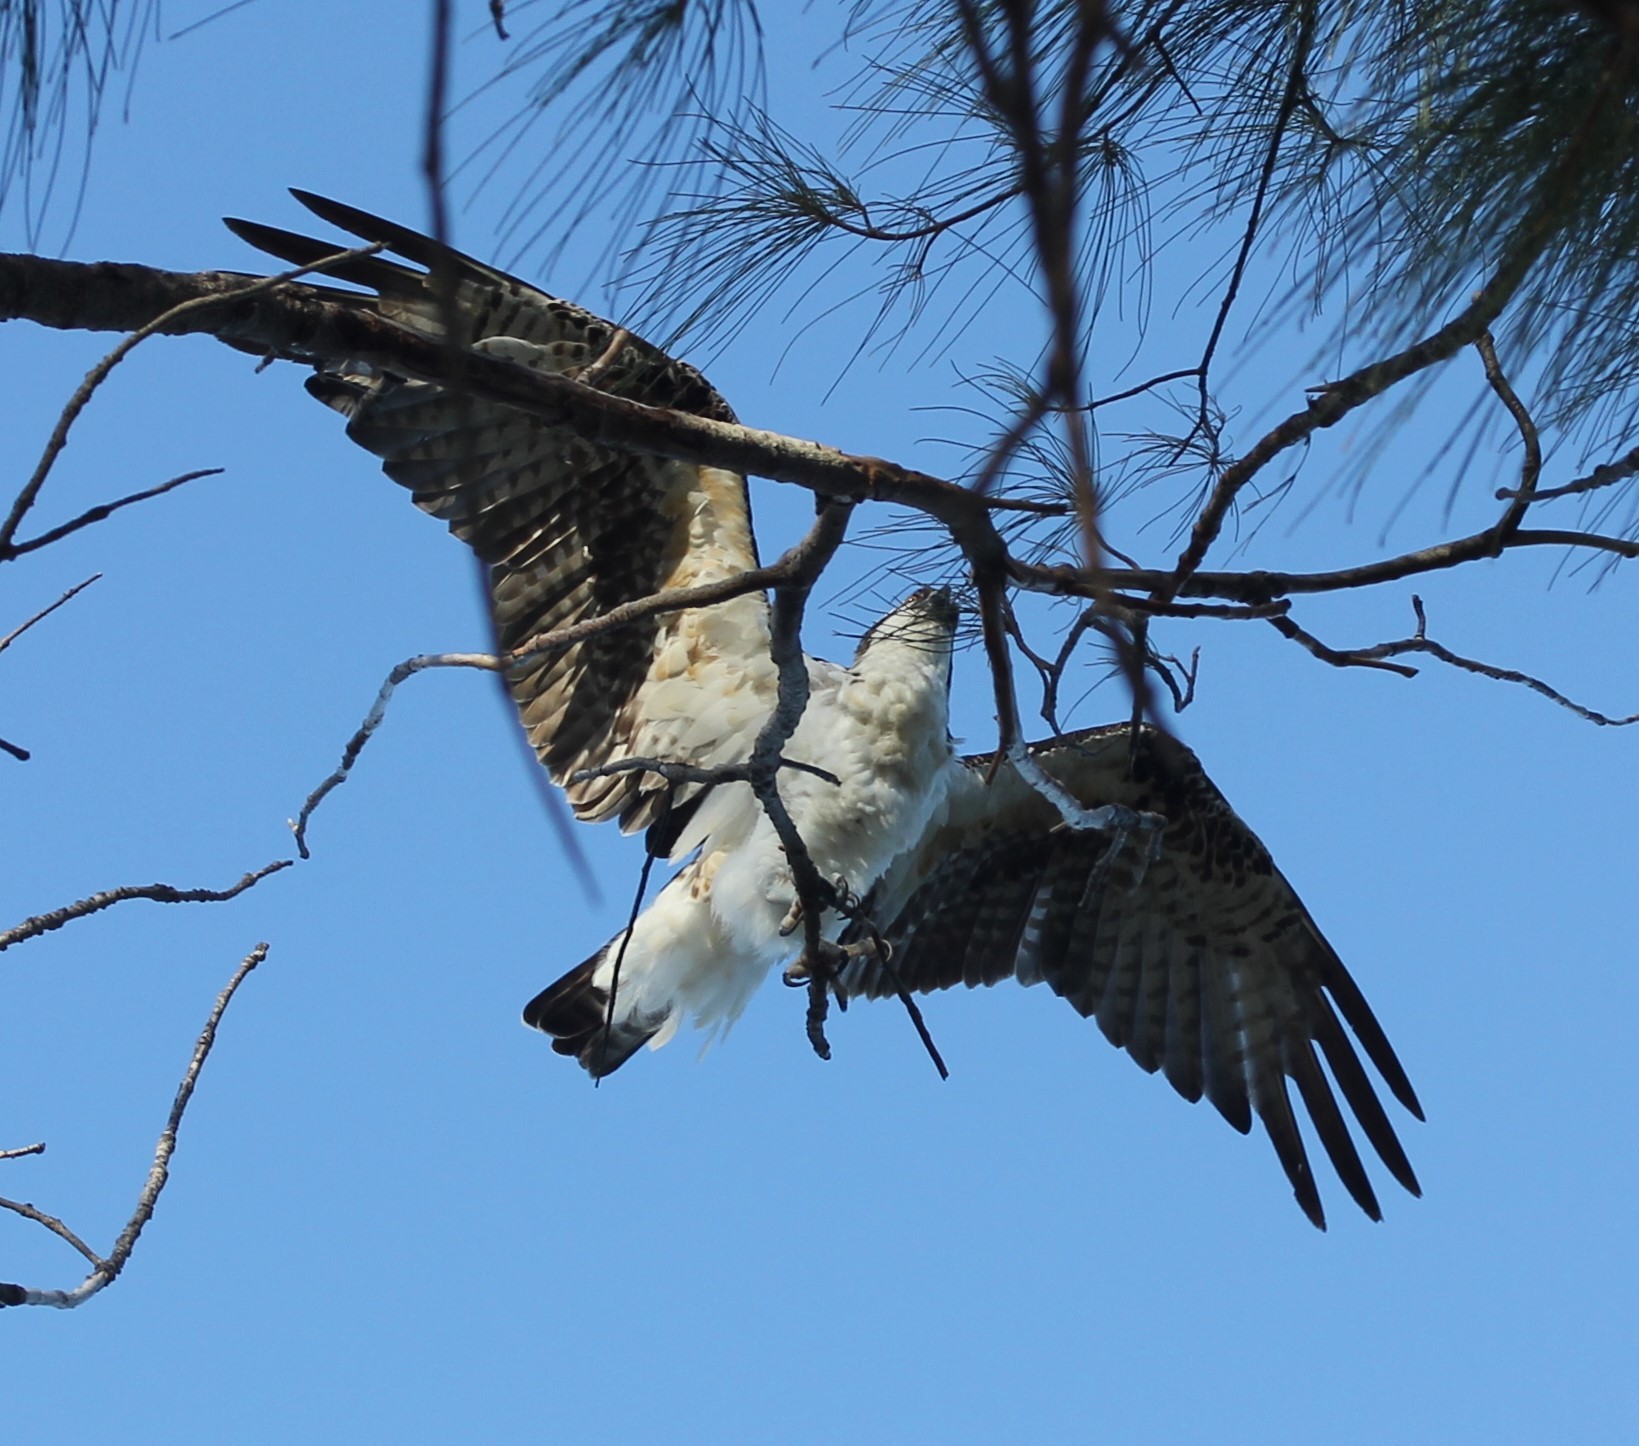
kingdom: Animalia
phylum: Chordata
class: Aves
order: Accipitriformes
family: Pandionidae
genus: Pandion
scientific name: Pandion haliaetus
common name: Osprey
